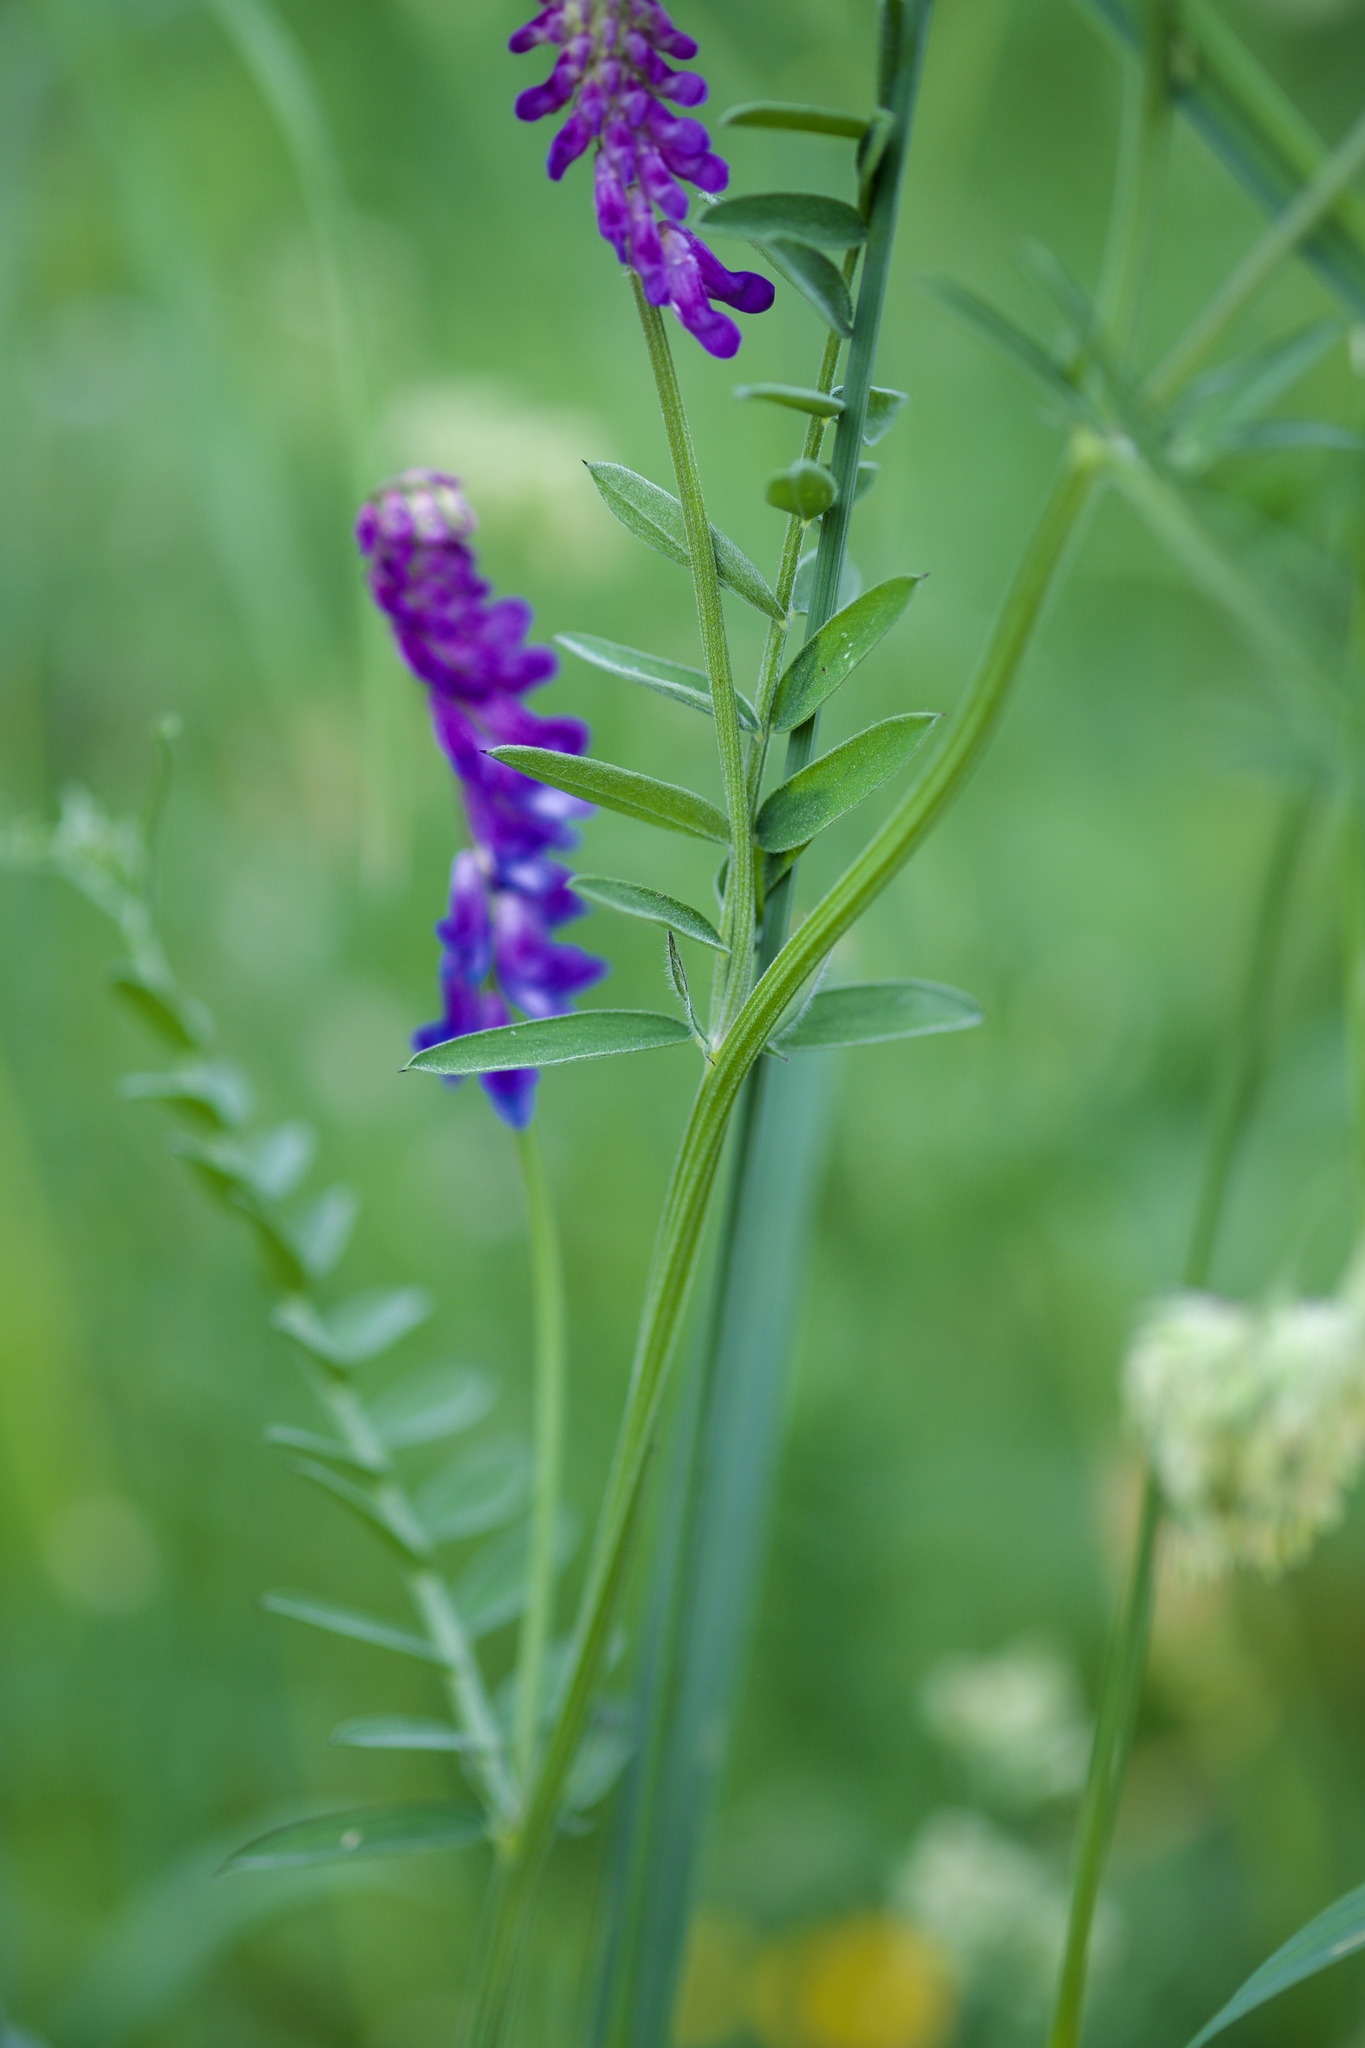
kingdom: Plantae
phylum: Tracheophyta
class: Magnoliopsida
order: Fabales
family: Fabaceae
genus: Vicia
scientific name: Vicia cracca
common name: Bird vetch
